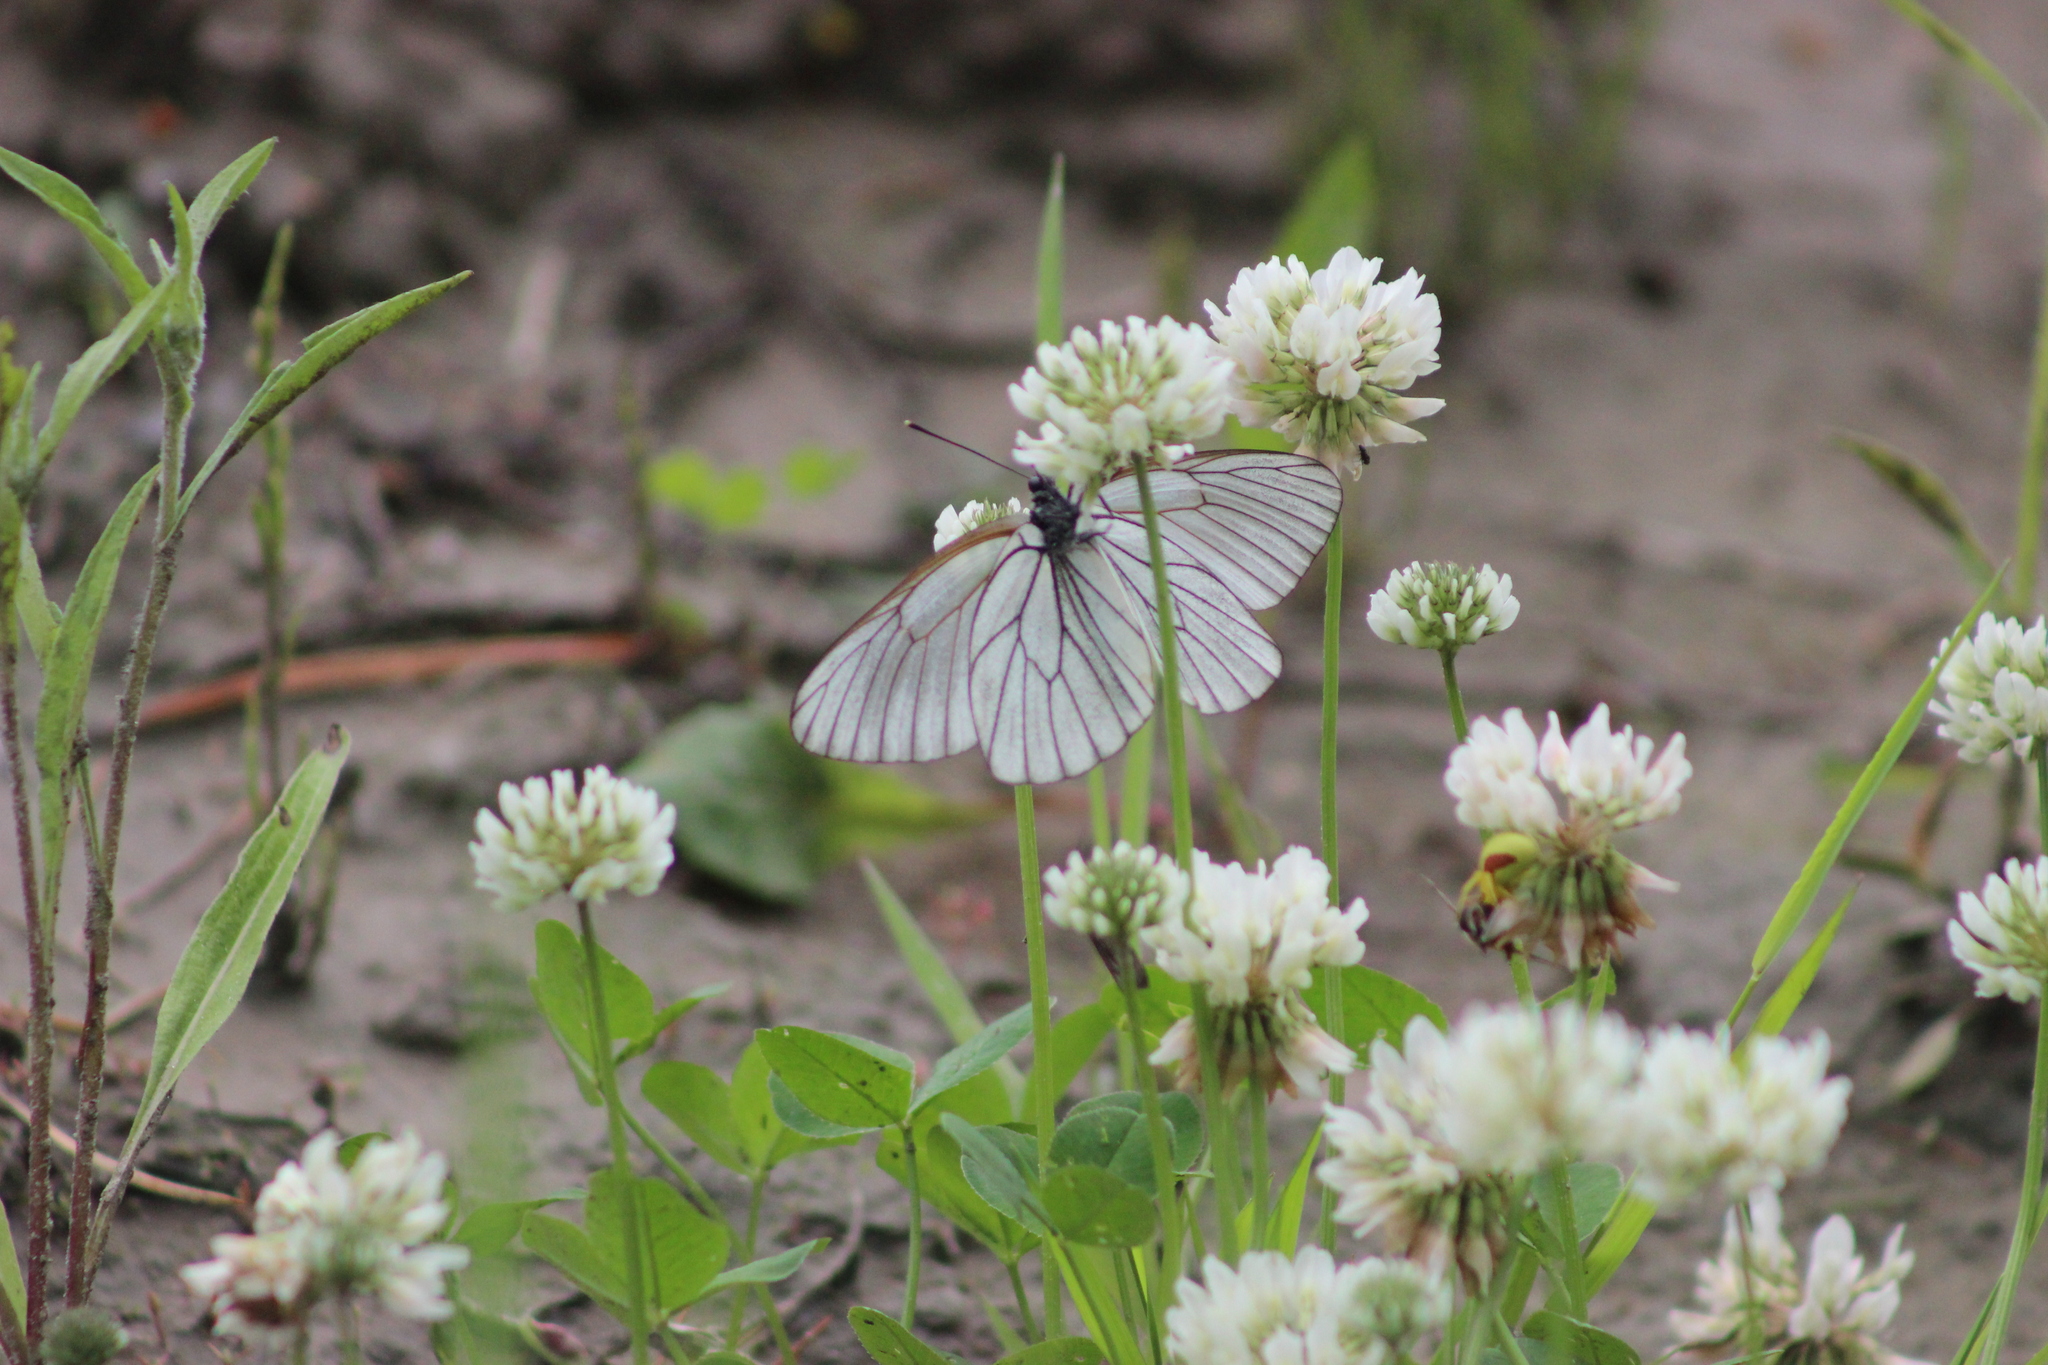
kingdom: Animalia
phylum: Arthropoda
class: Insecta
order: Lepidoptera
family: Pieridae
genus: Aporia
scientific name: Aporia crataegi
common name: Black-veined white
